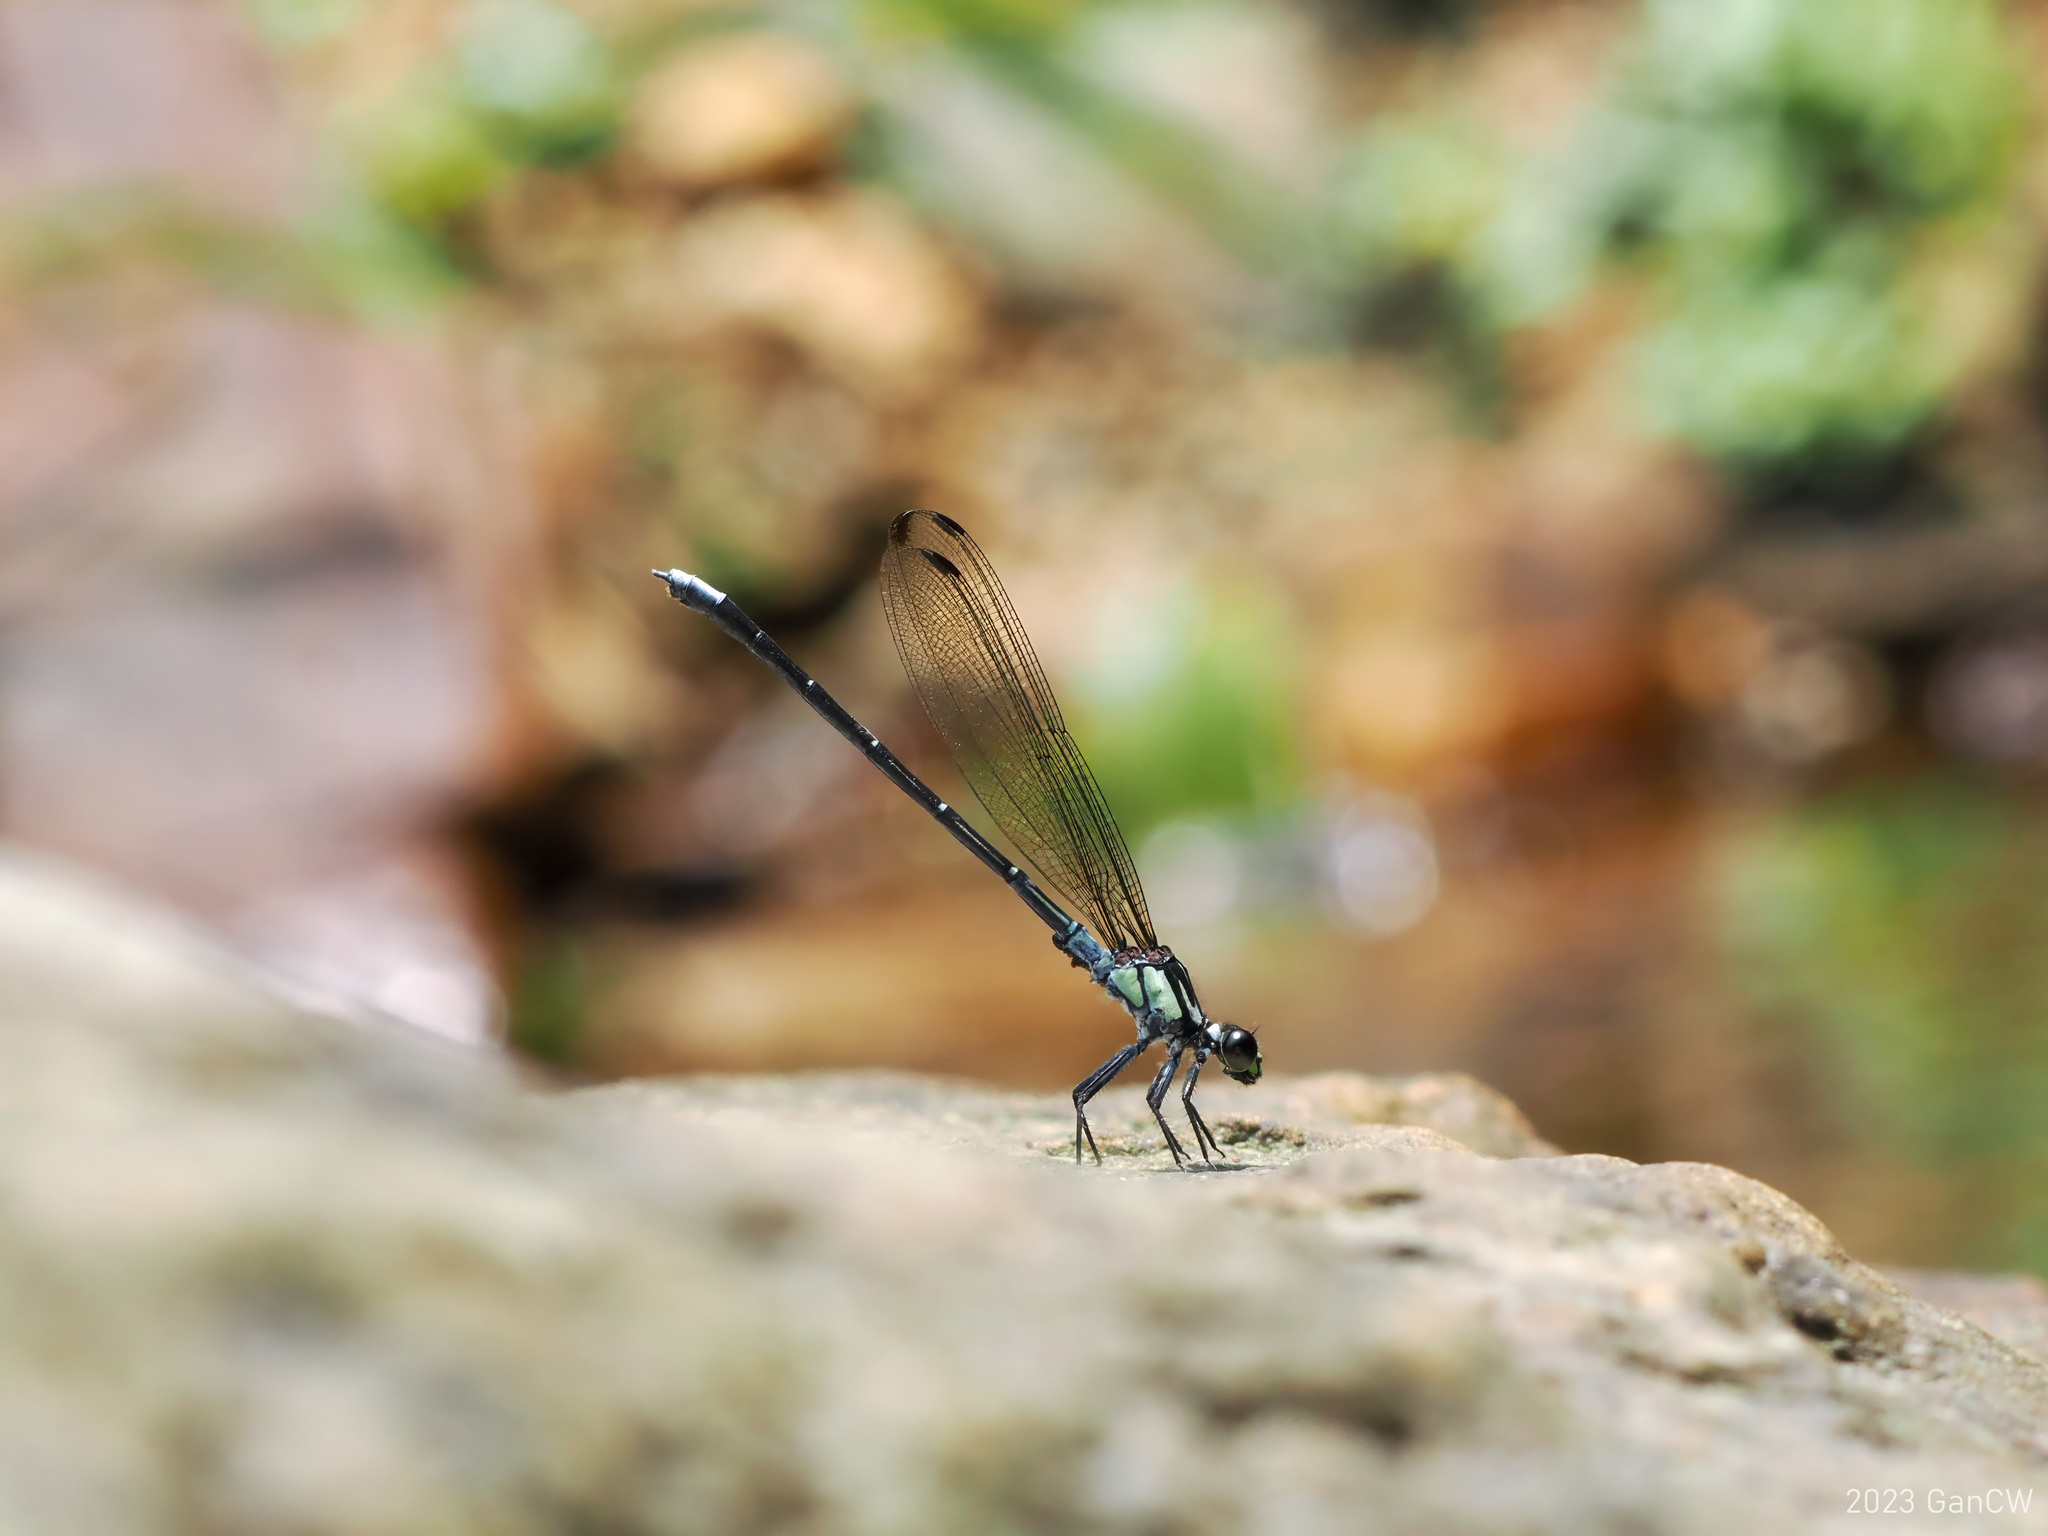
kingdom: Animalia
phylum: Arthropoda
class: Insecta
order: Odonata
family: Euphaeidae
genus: Anisopleura
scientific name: Anisopleura comes
